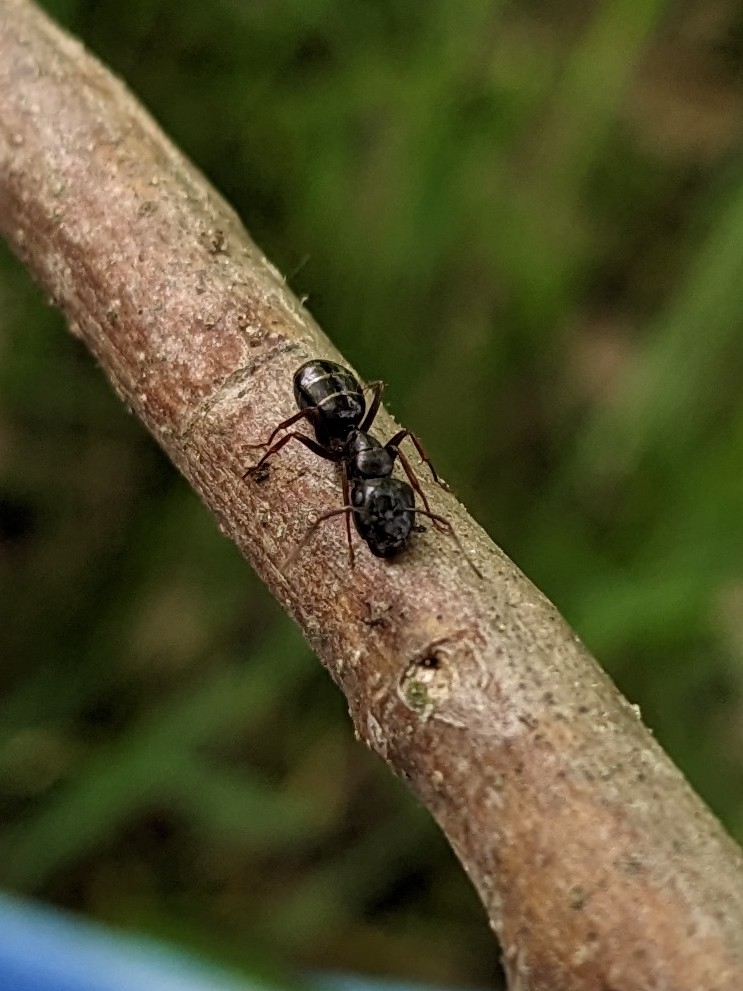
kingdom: Animalia
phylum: Arthropoda
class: Insecta
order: Hymenoptera
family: Formicidae
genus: Camponotus
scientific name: Camponotus fallax
